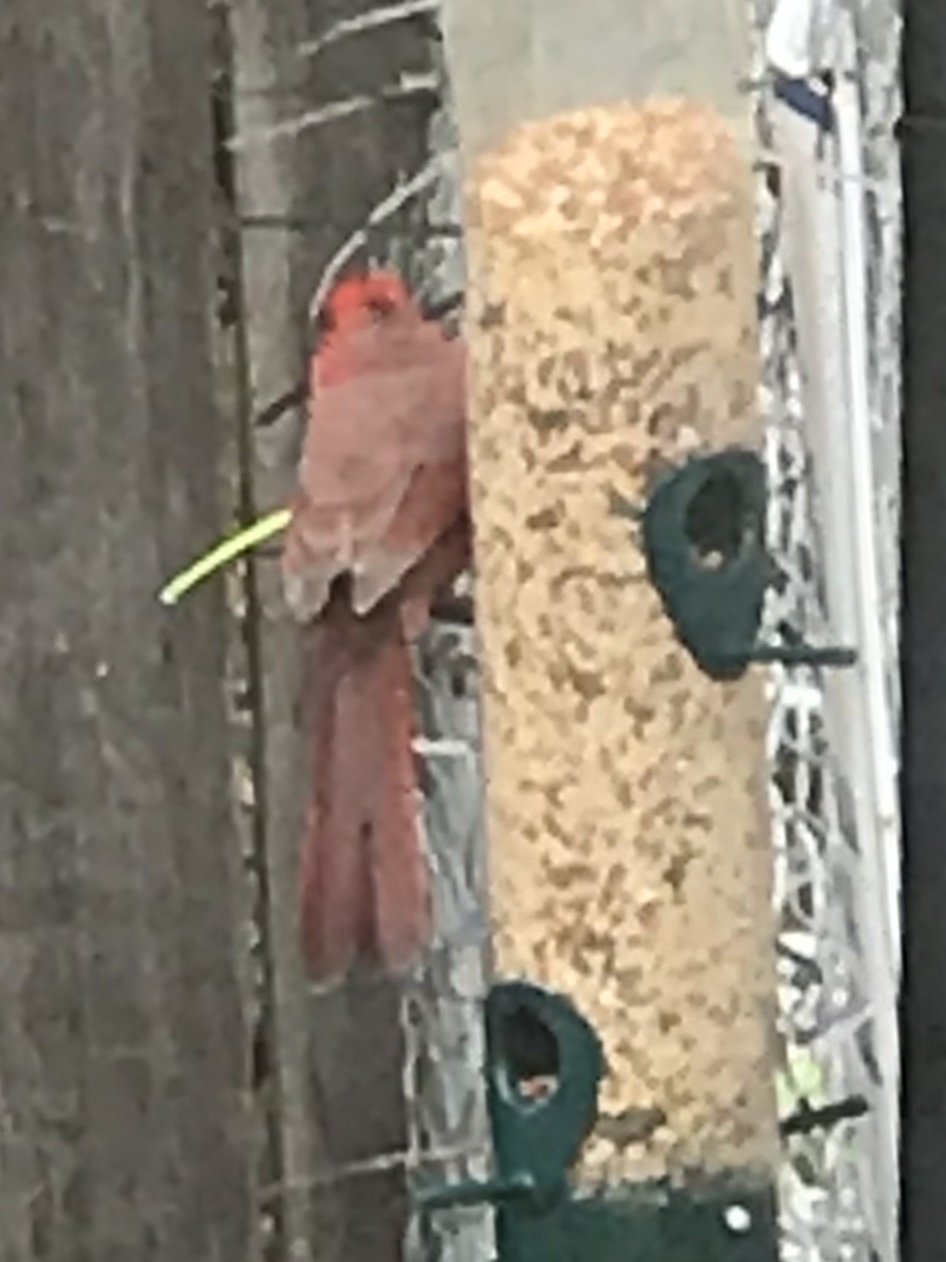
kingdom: Animalia
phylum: Chordata
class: Aves
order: Passeriformes
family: Cardinalidae
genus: Cardinalis
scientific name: Cardinalis cardinalis
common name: Northern cardinal
